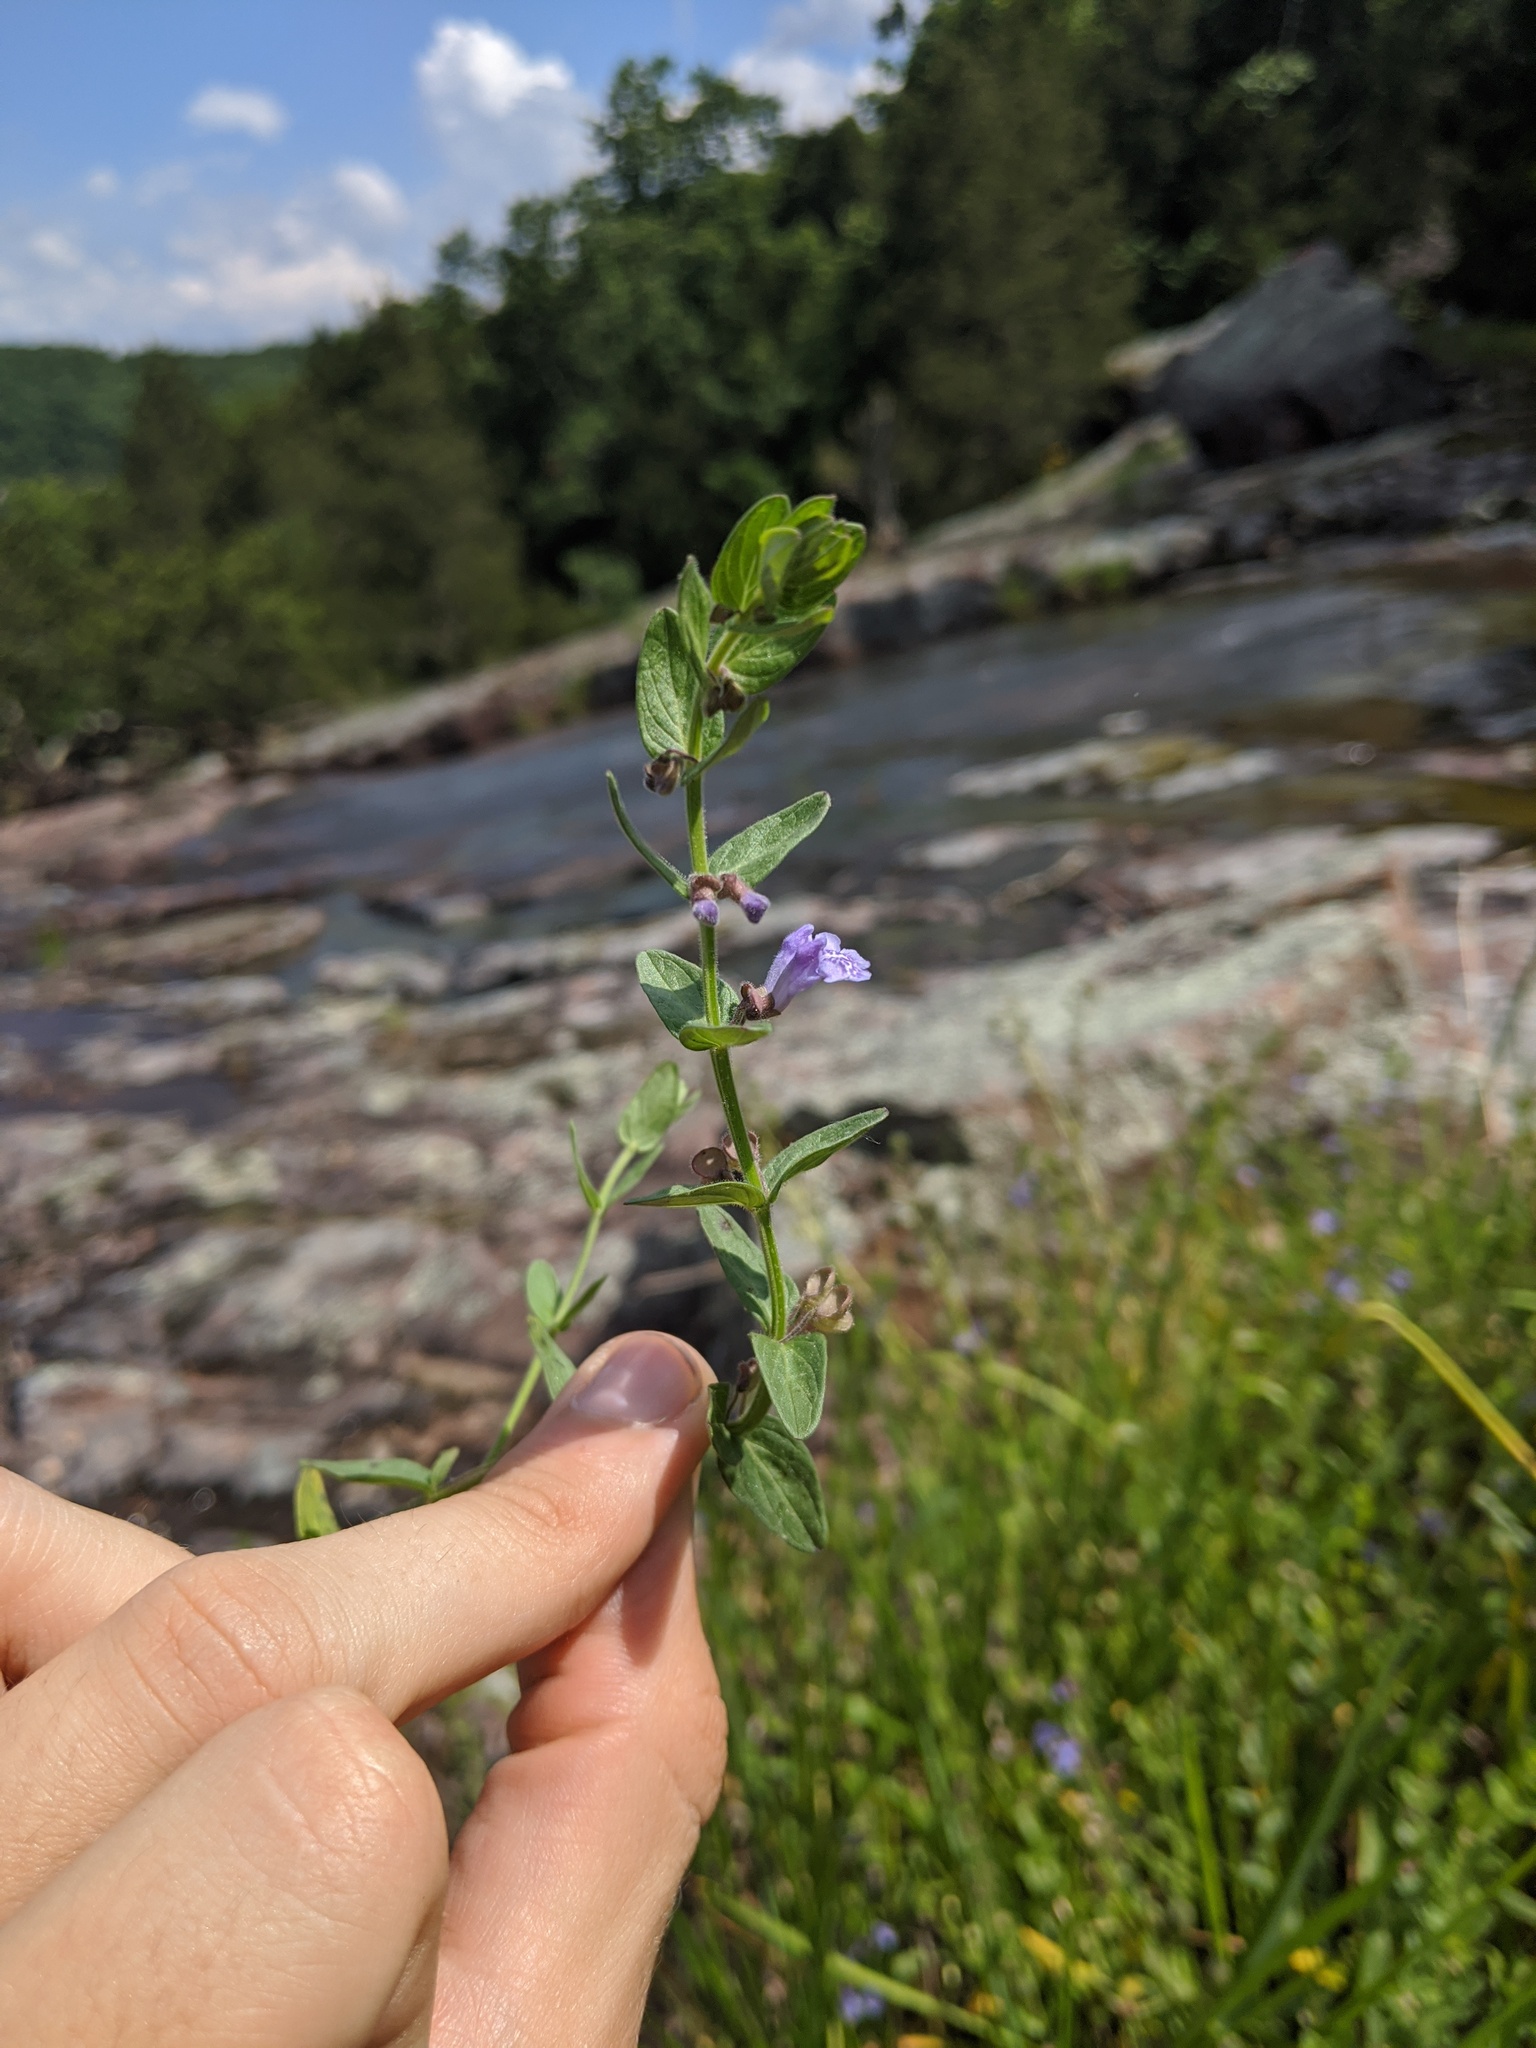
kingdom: Plantae
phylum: Tracheophyta
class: Magnoliopsida
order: Lamiales
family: Lamiaceae
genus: Scutellaria
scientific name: Scutellaria parvula
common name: Little scullcap
